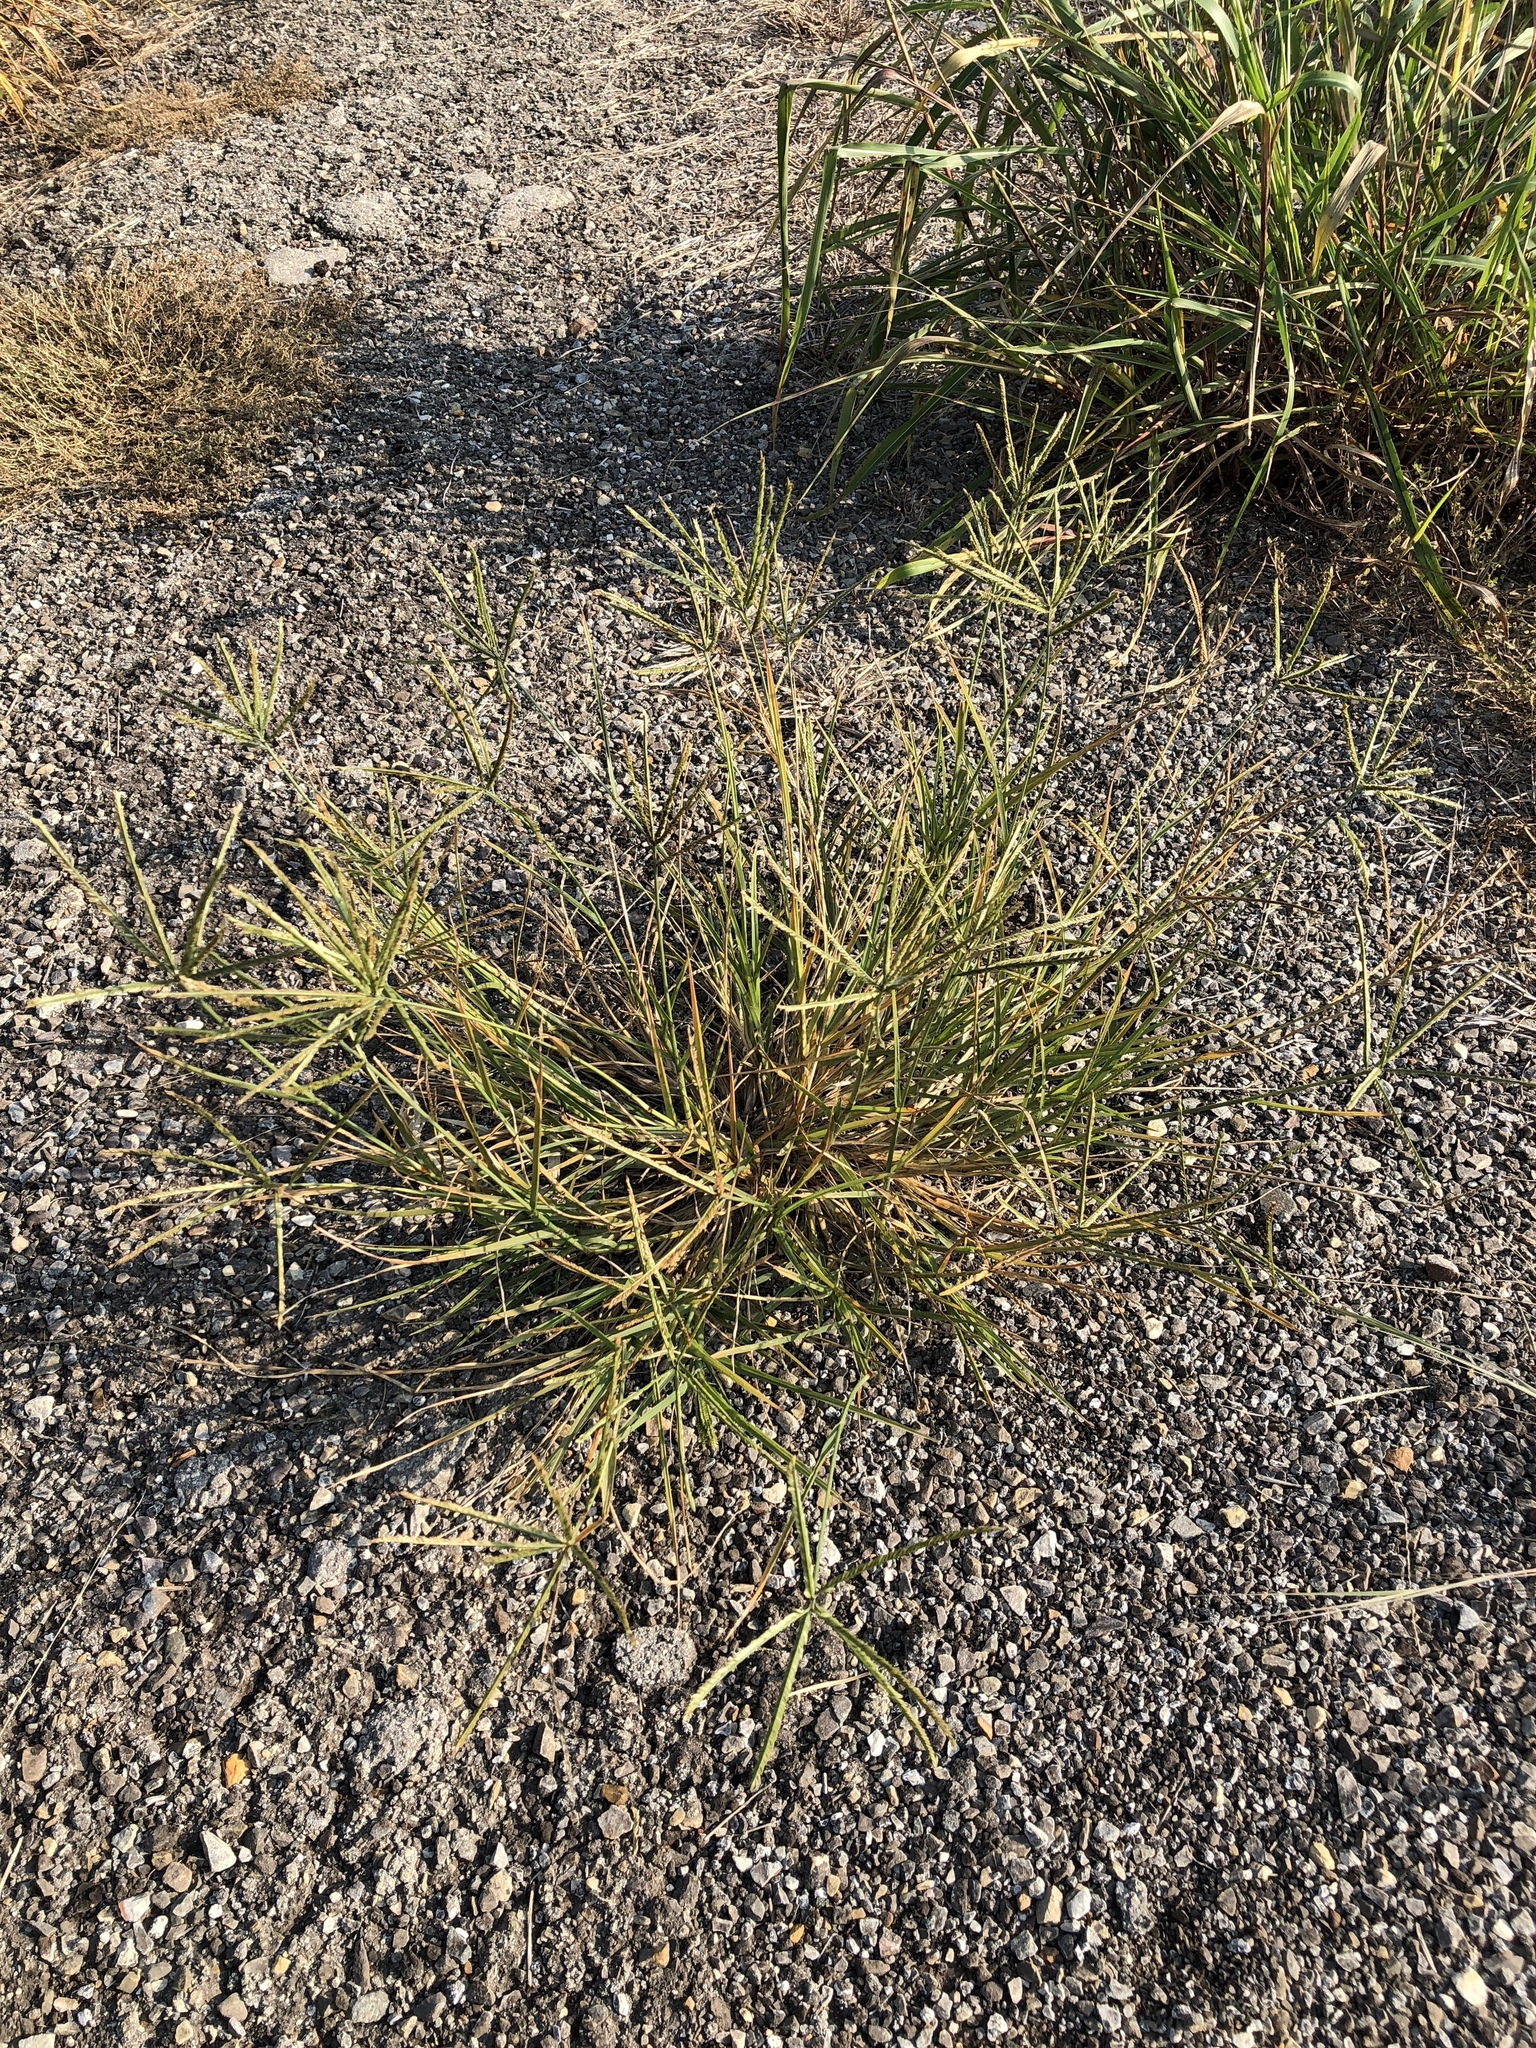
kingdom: Plantae
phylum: Tracheophyta
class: Liliopsida
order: Poales
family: Poaceae
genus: Eleusine
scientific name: Eleusine indica
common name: Yard-grass
